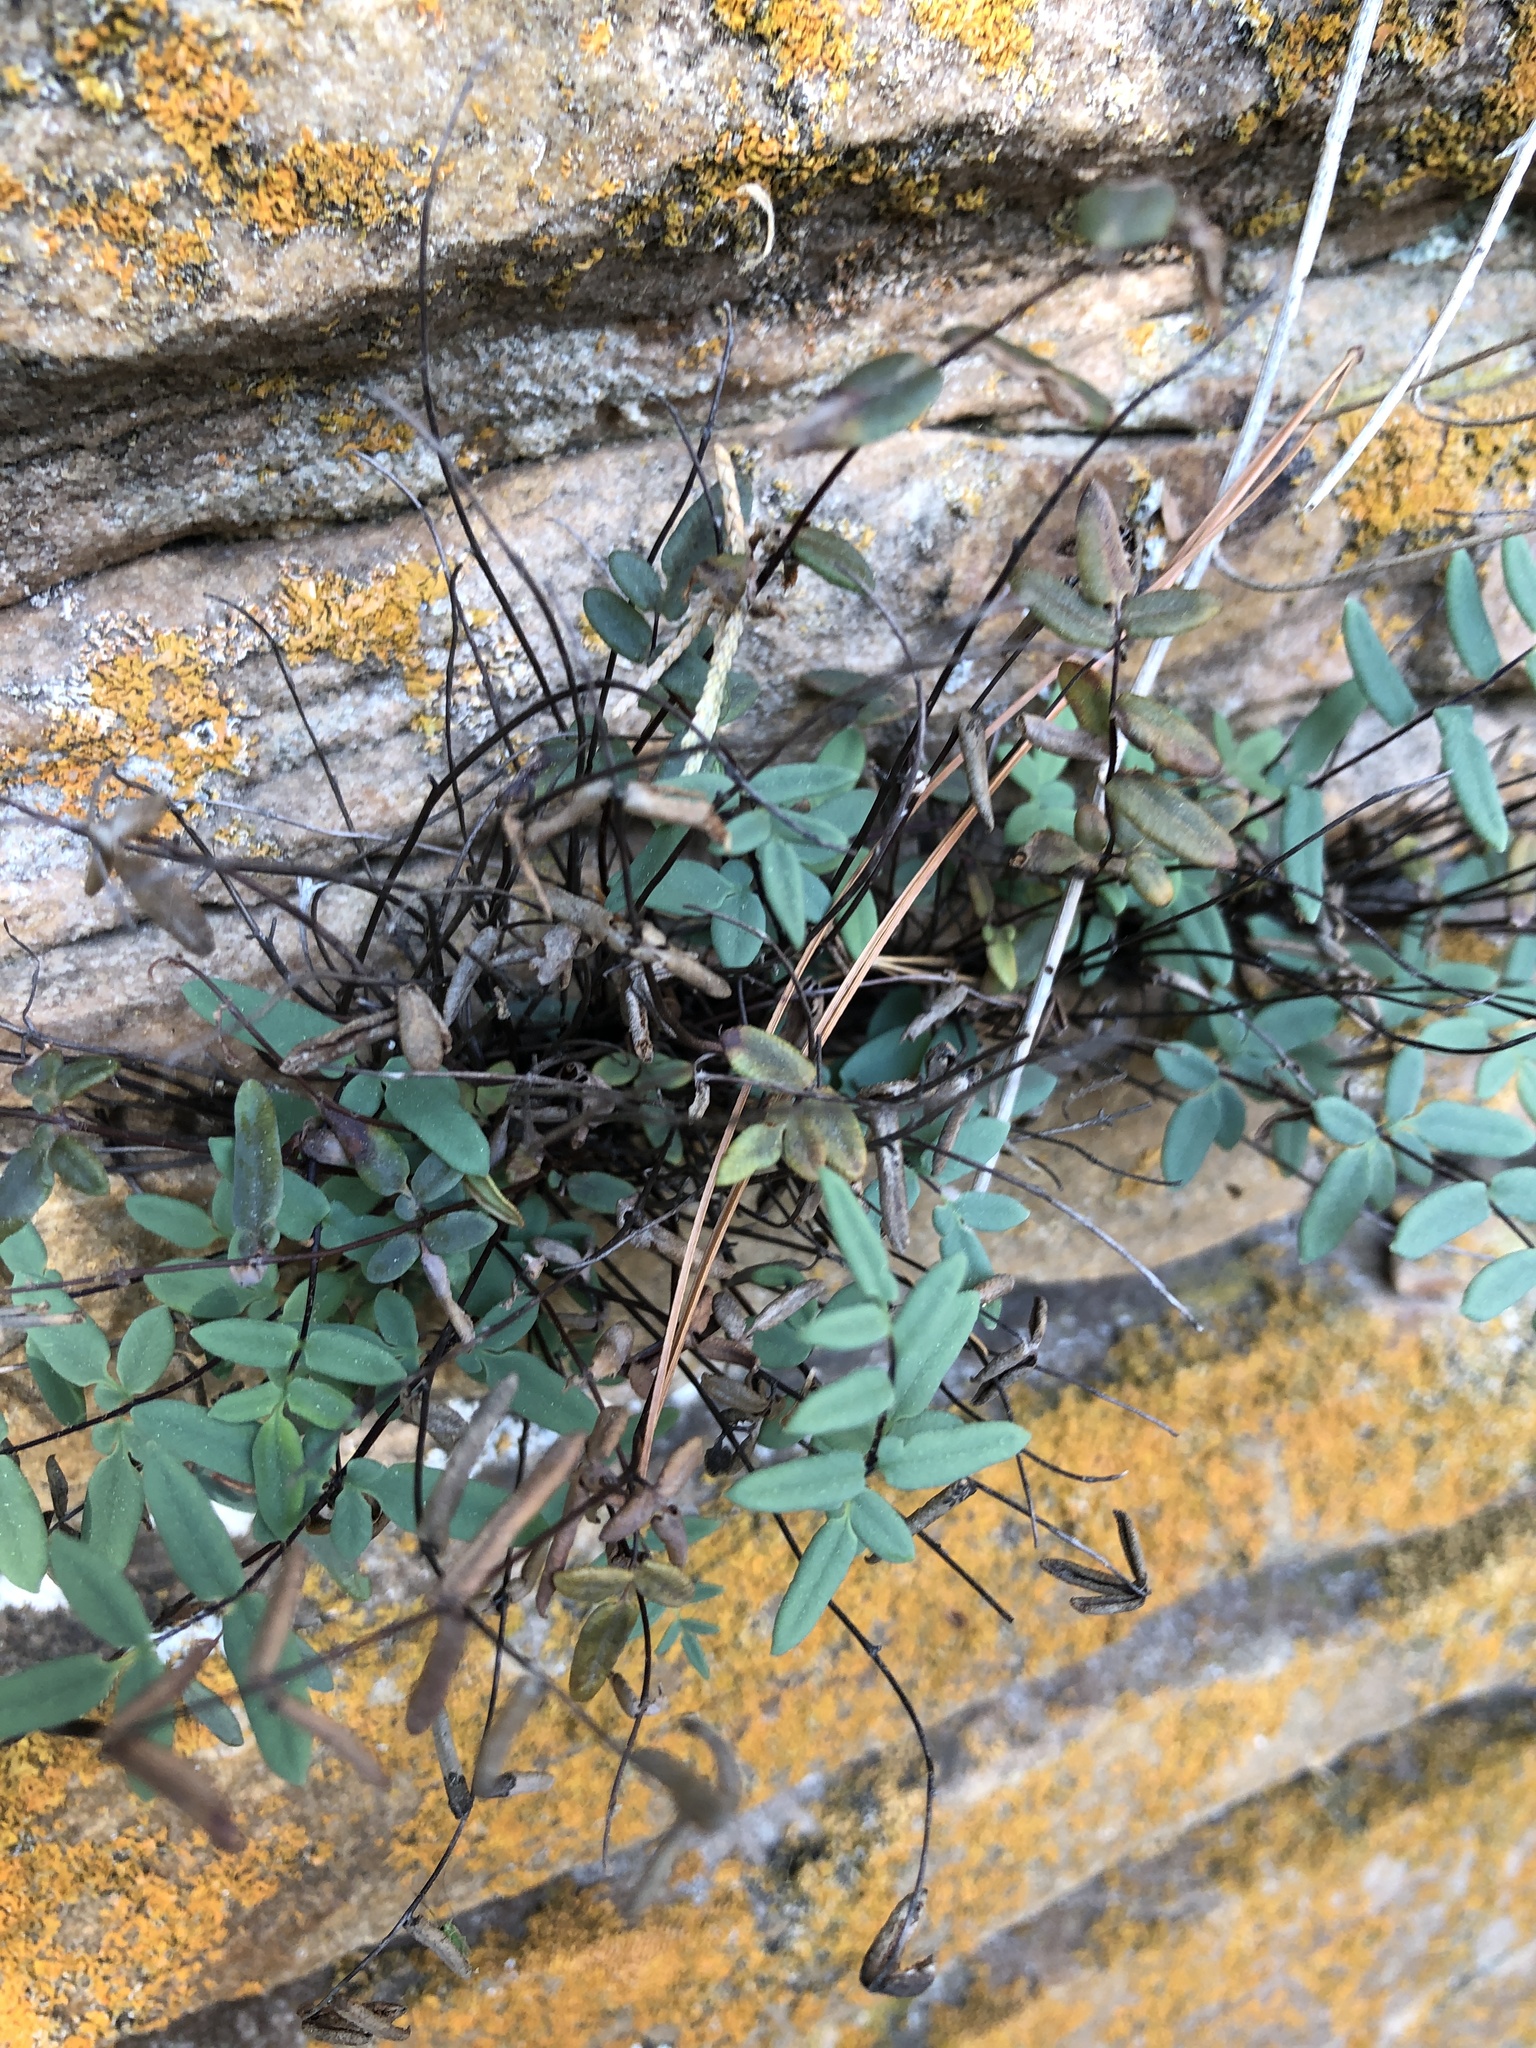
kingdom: Plantae
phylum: Tracheophyta
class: Polypodiopsida
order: Polypodiales
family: Pteridaceae
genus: Pellaea
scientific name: Pellaea glabella
